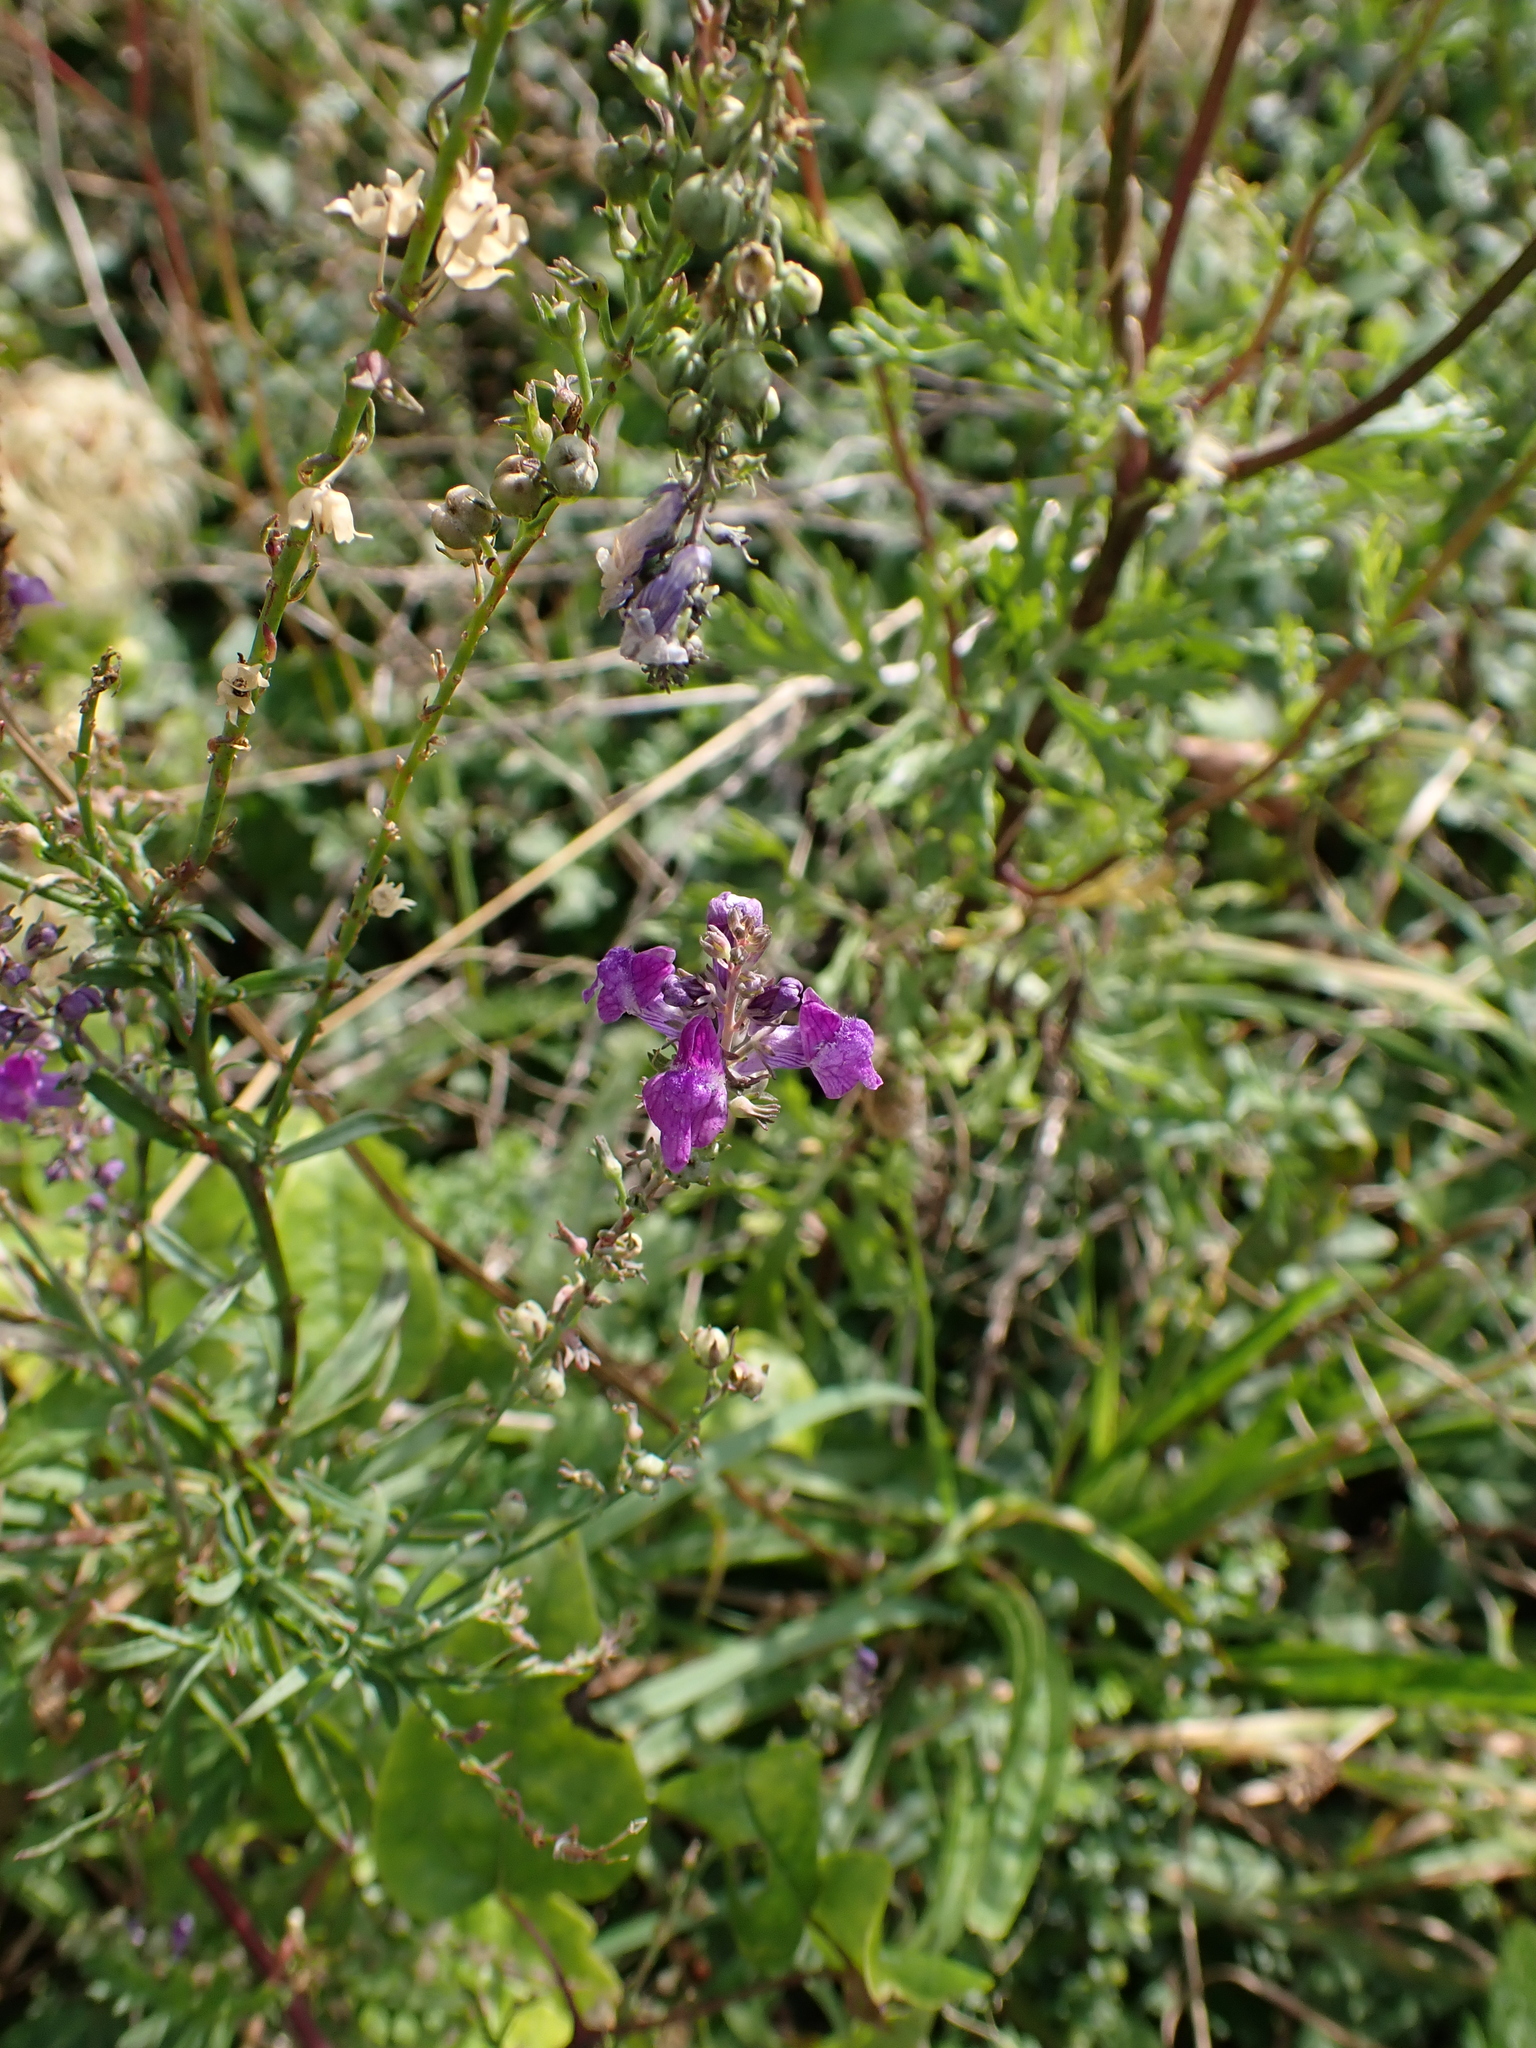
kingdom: Plantae
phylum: Tracheophyta
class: Magnoliopsida
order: Lamiales
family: Plantaginaceae
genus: Linaria
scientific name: Linaria purpurea
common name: Purple toadflax
